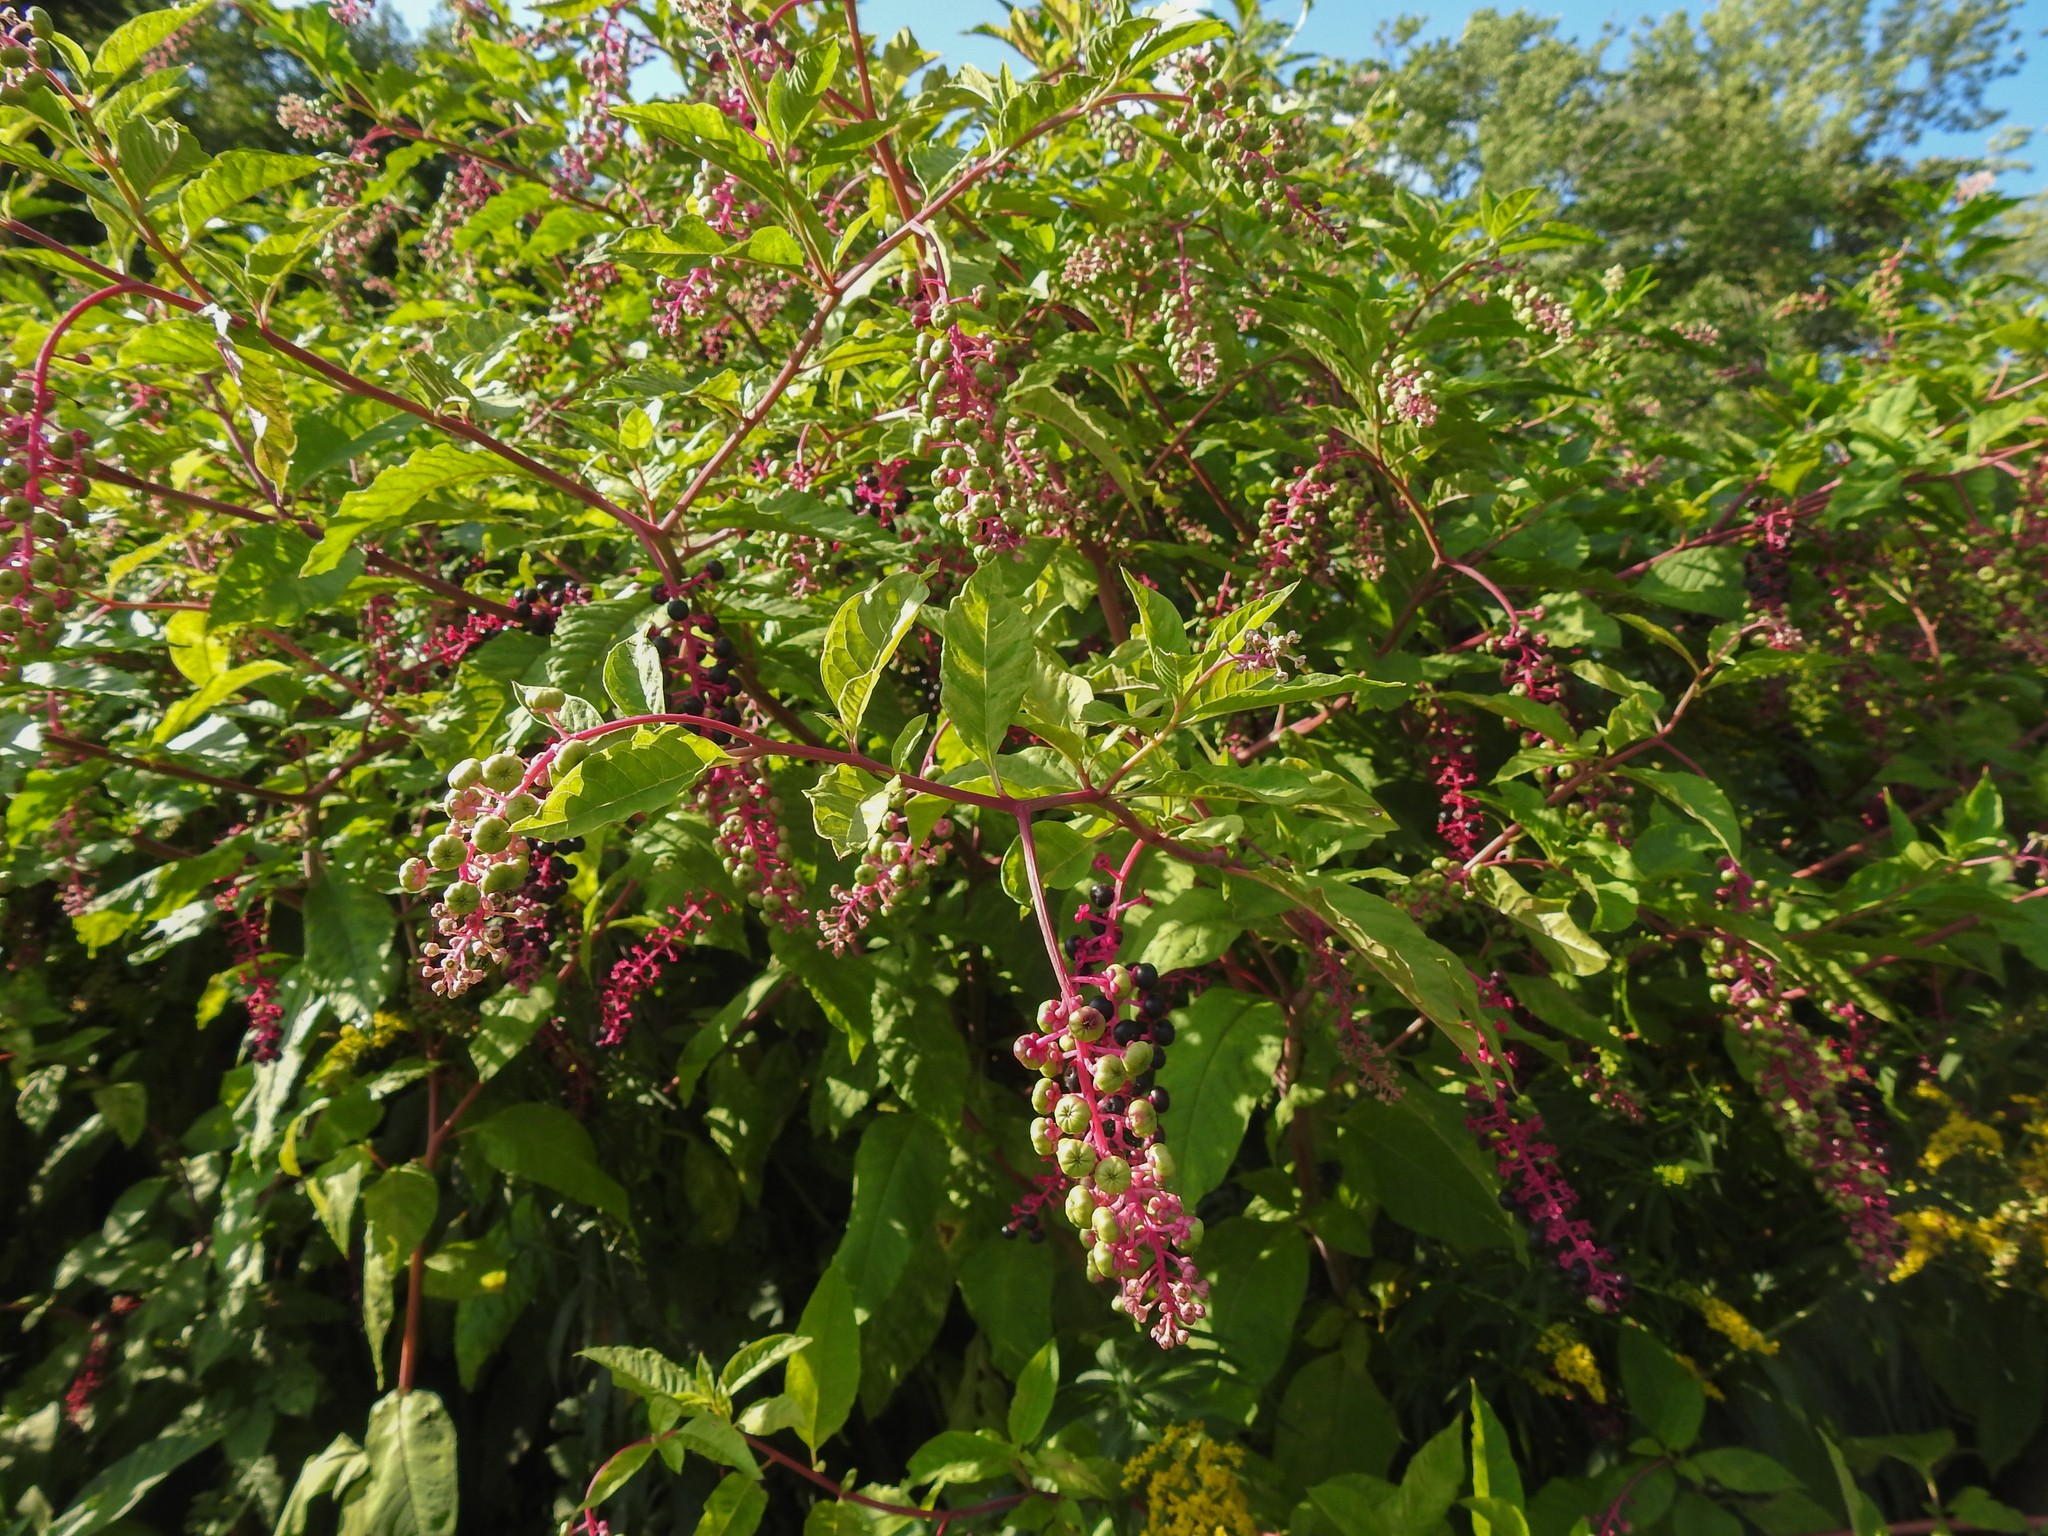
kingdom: Plantae
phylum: Tracheophyta
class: Magnoliopsida
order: Caryophyllales
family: Phytolaccaceae
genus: Phytolacca
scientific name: Phytolacca americana
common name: American pokeweed
